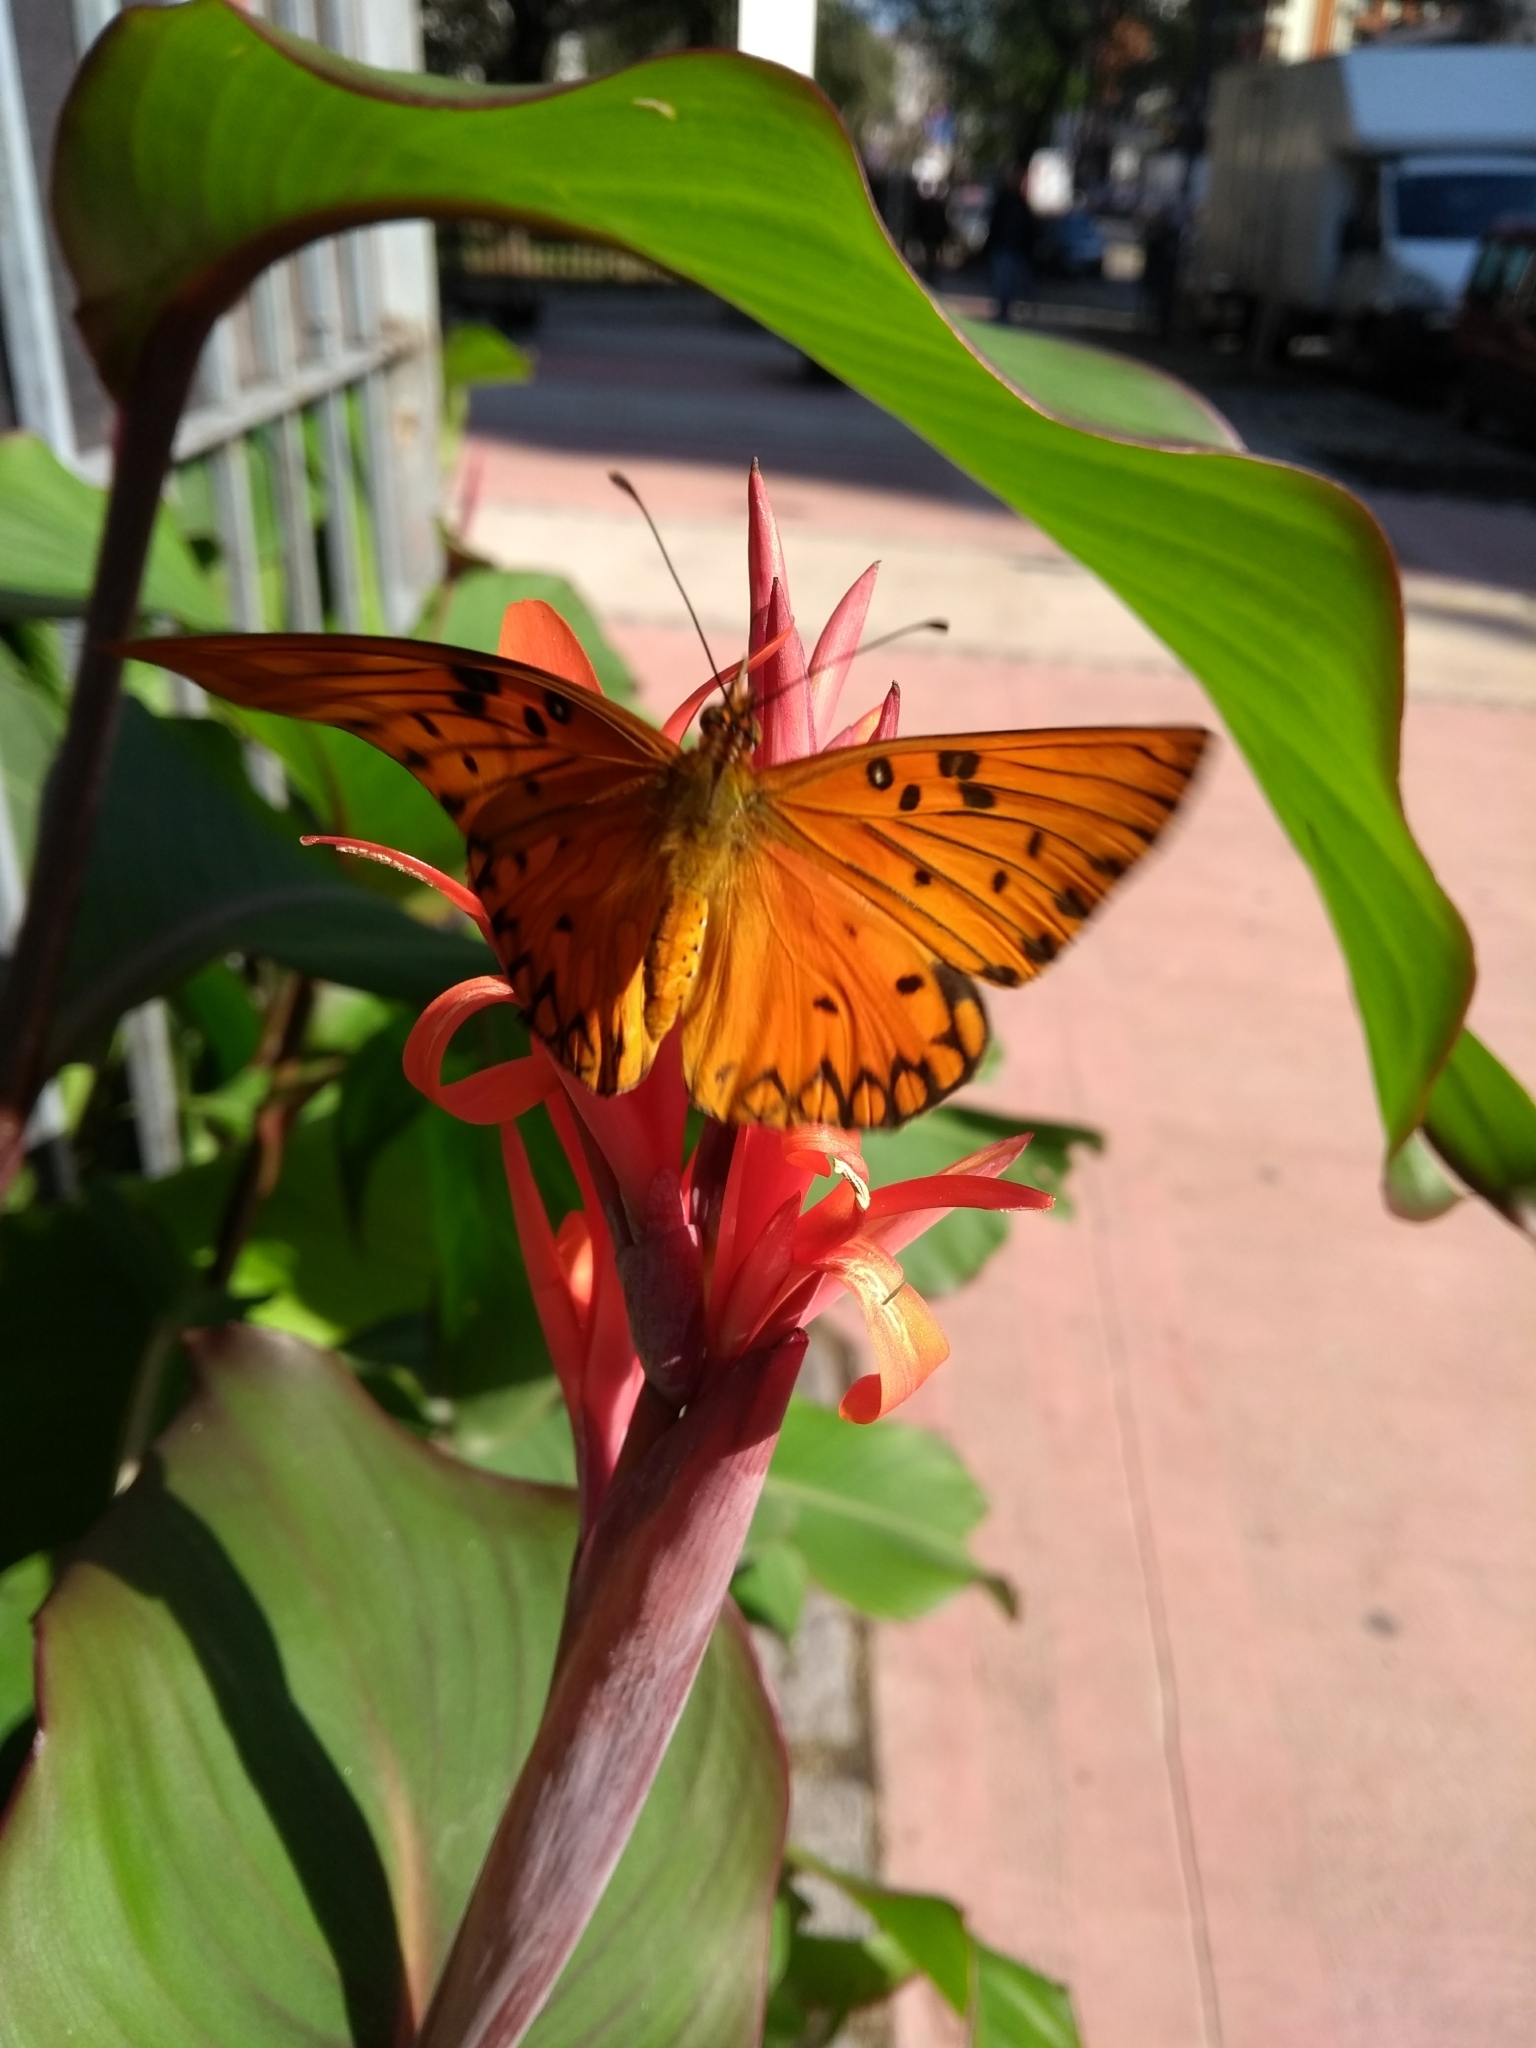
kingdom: Animalia
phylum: Arthropoda
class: Insecta
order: Lepidoptera
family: Nymphalidae
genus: Dione
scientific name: Dione vanillae
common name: Gulf fritillary
